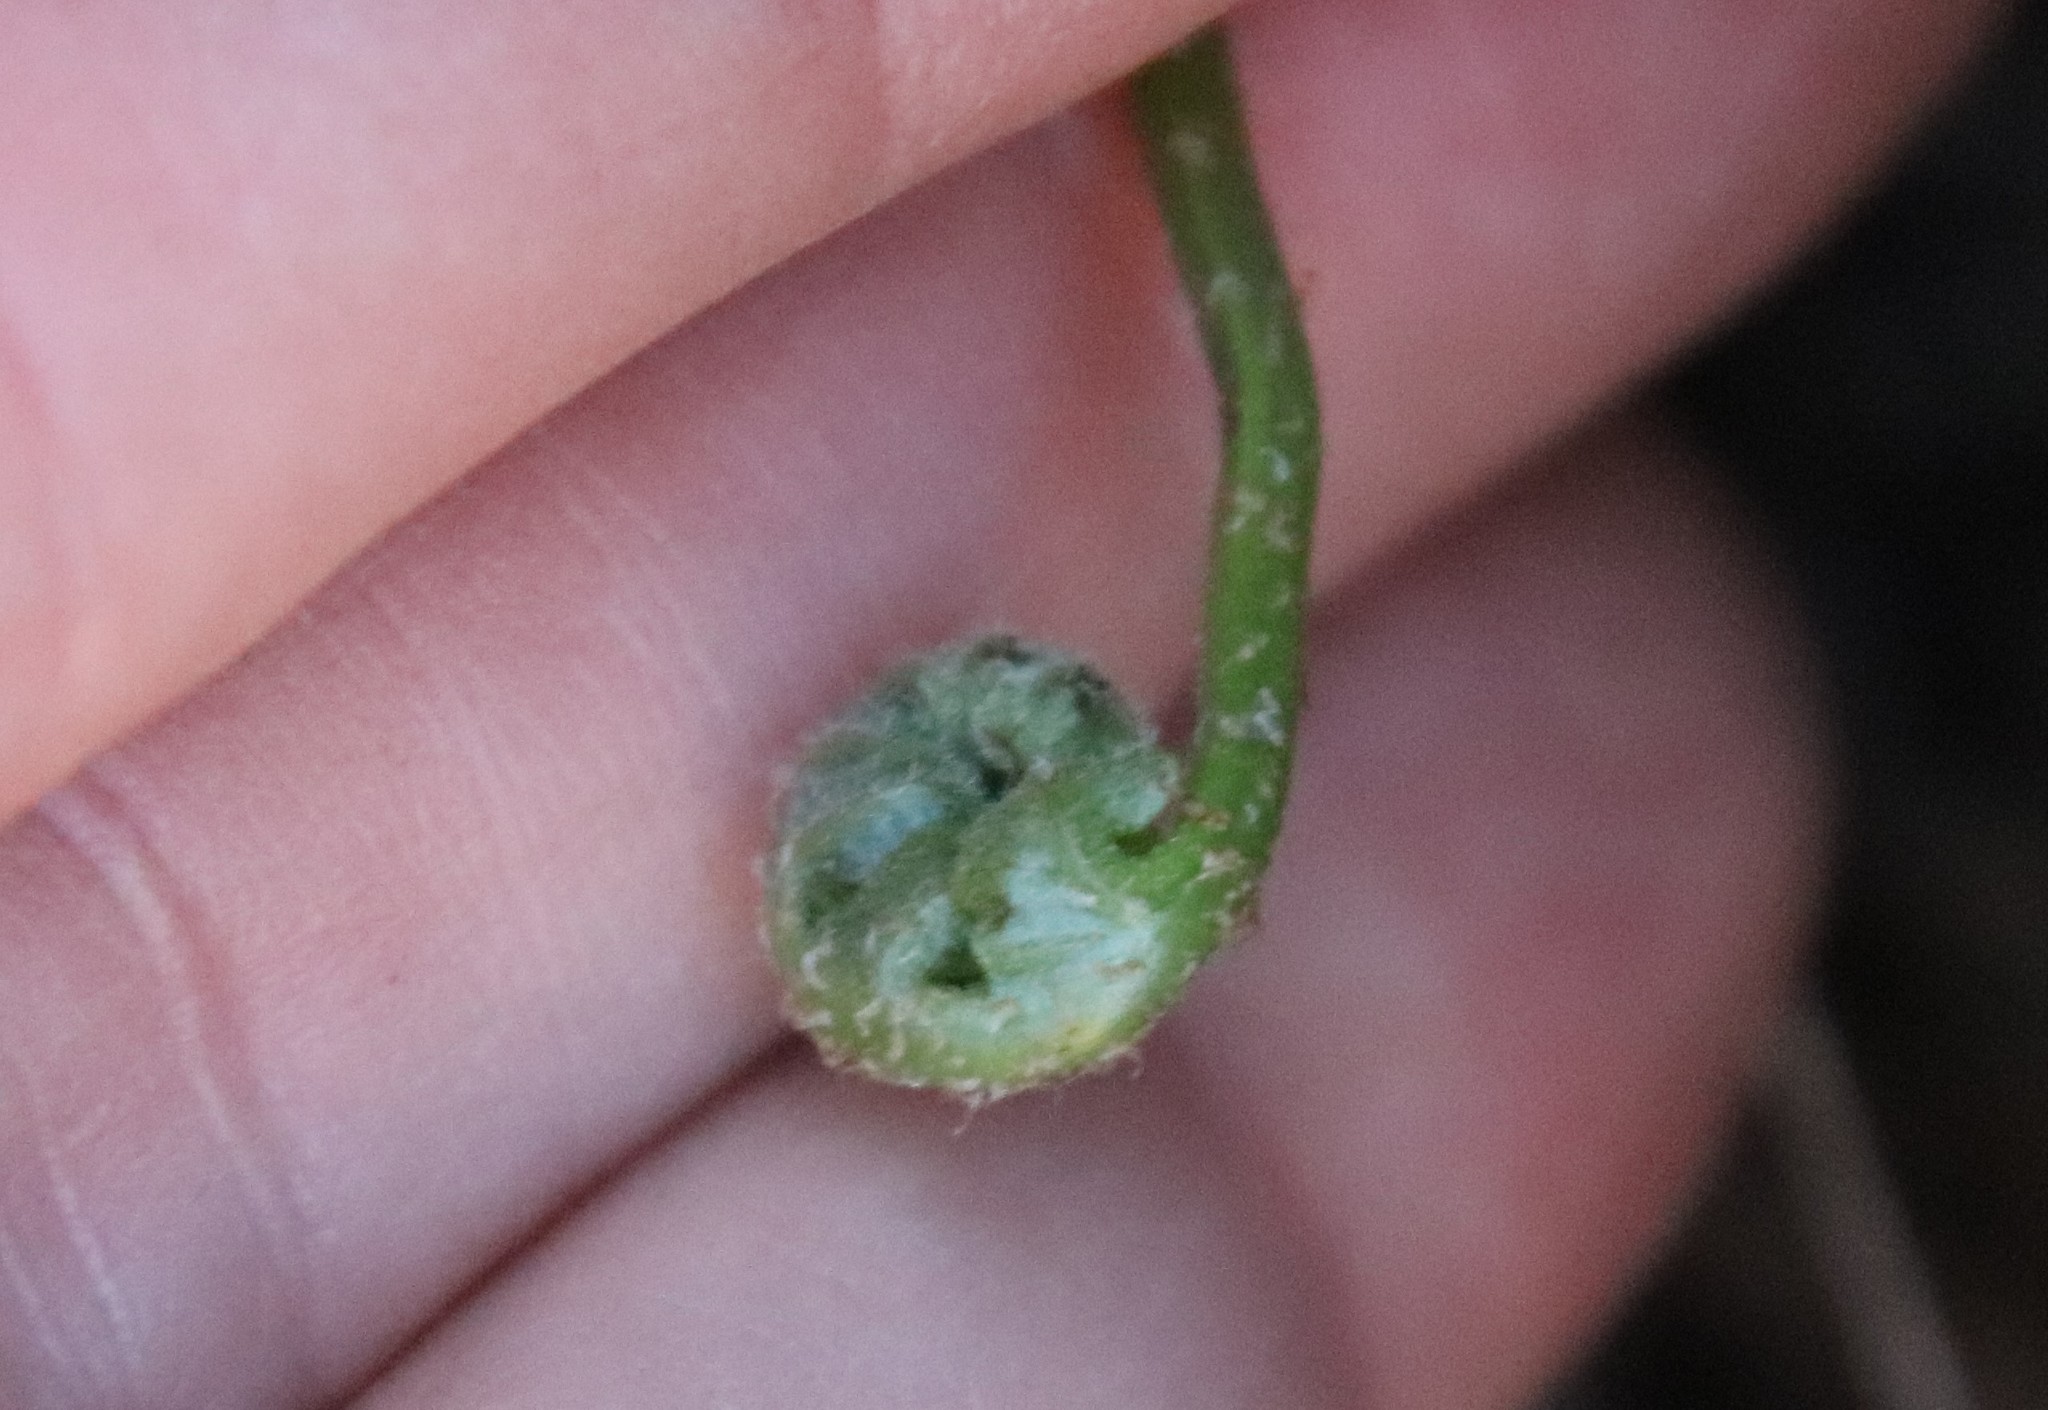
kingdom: Plantae
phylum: Tracheophyta
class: Polypodiopsida
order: Polypodiales
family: Polypodiaceae
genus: Polypodium
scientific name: Polypodium californicum
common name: California polypody
